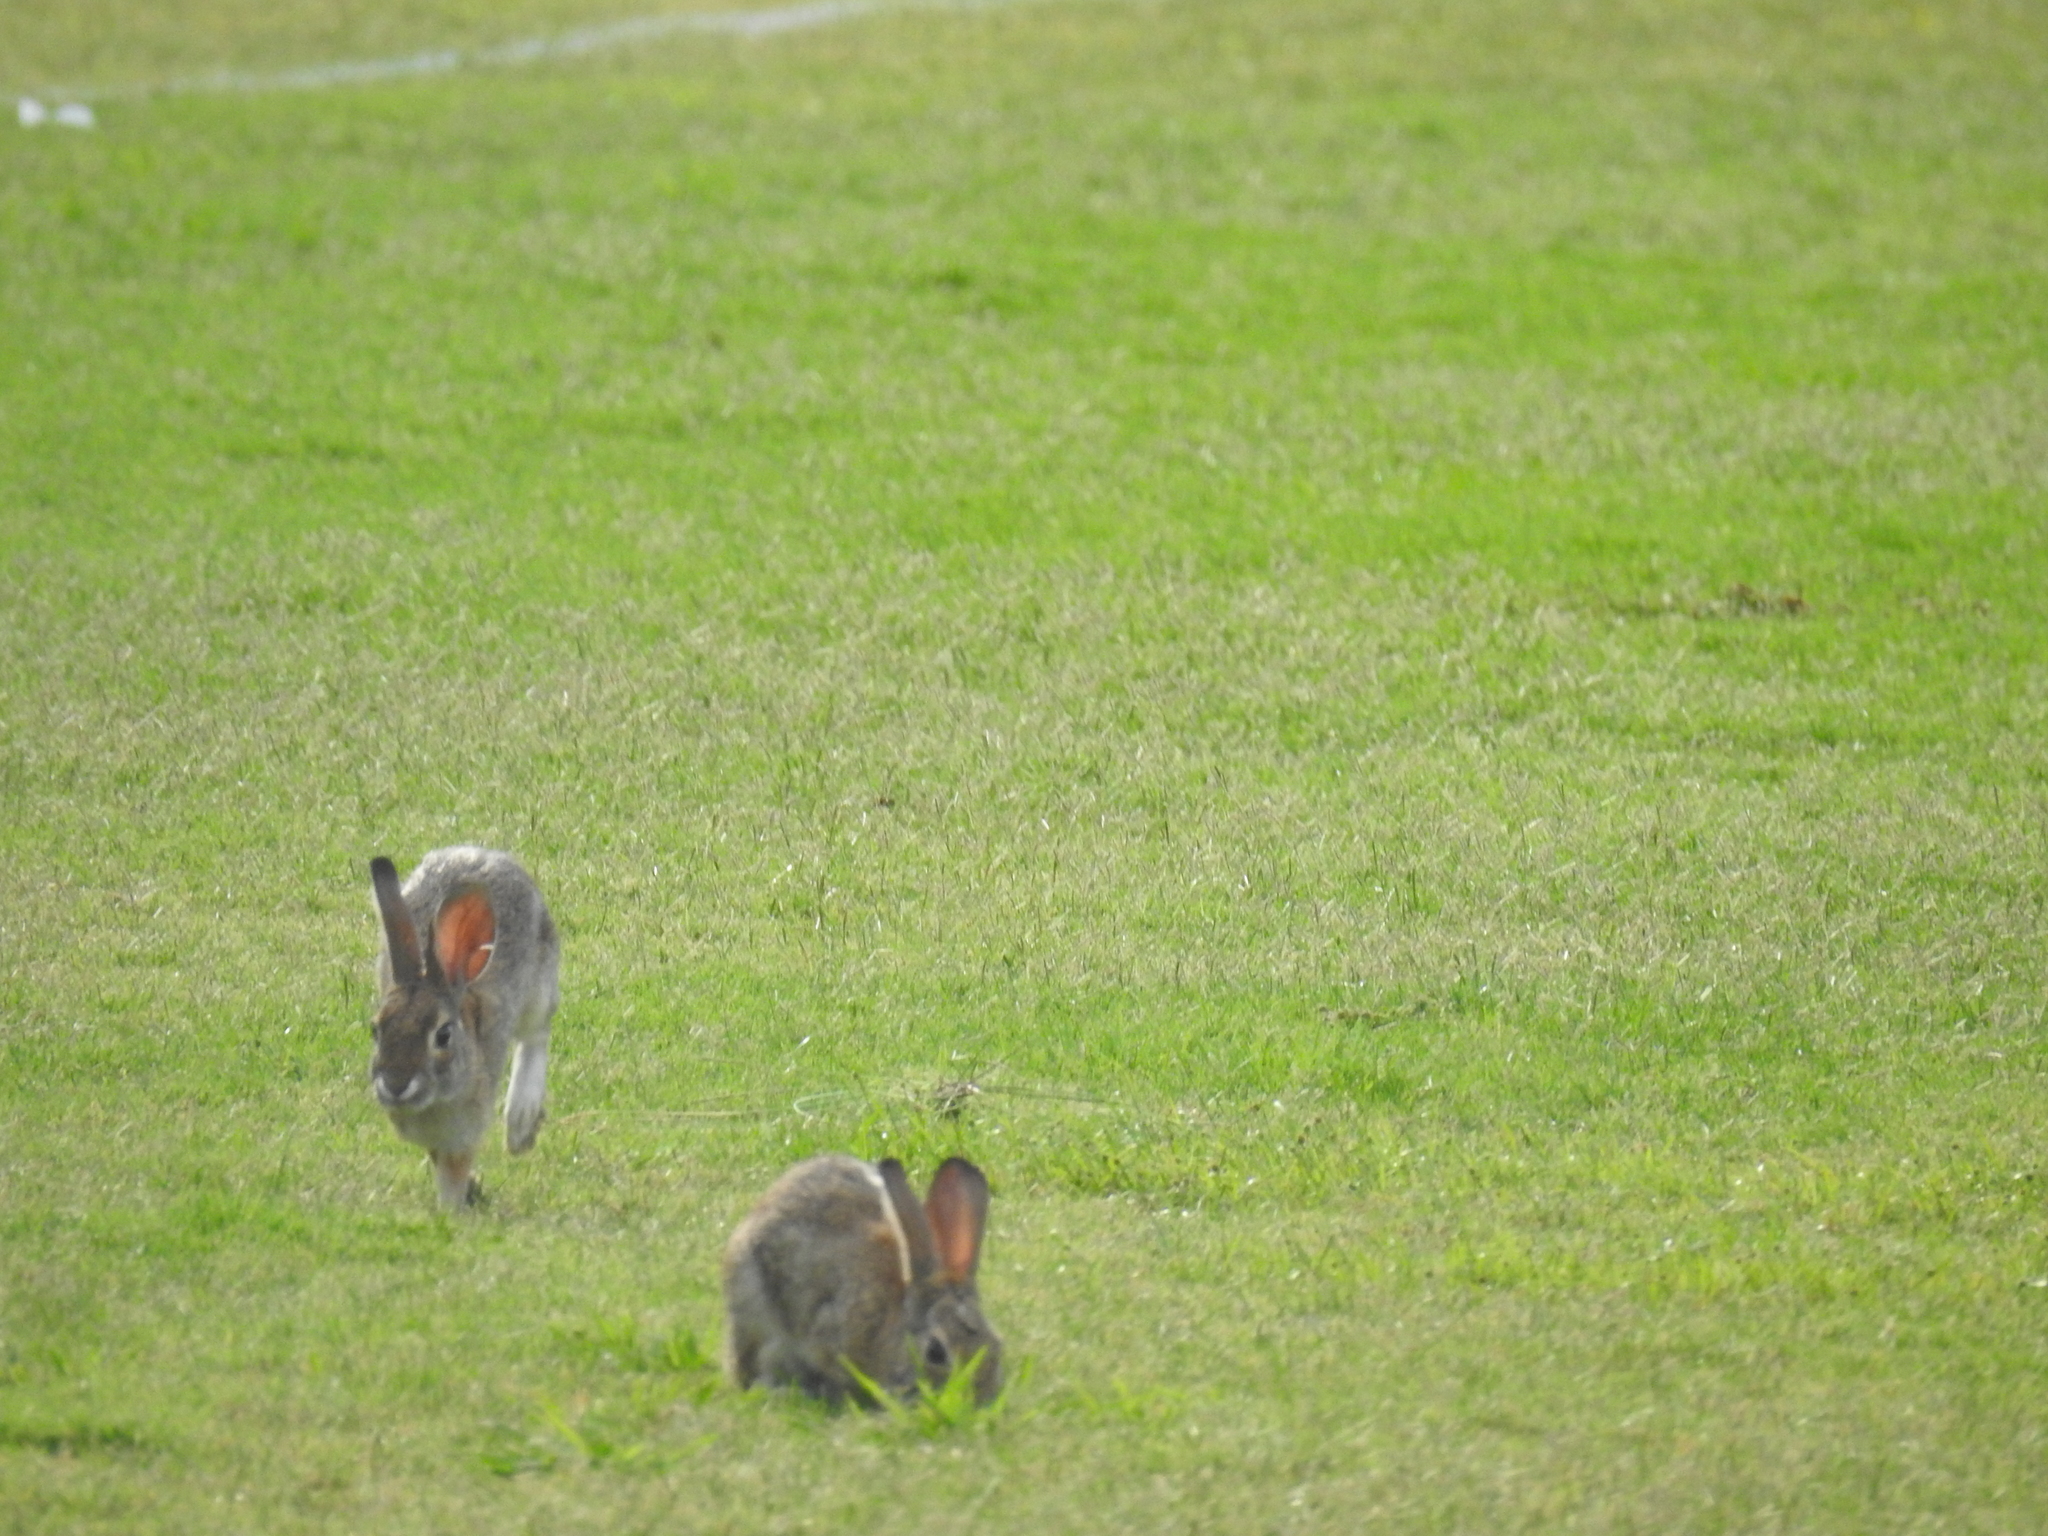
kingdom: Animalia
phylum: Chordata
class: Mammalia
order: Lagomorpha
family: Leporidae
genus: Sylvilagus
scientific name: Sylvilagus audubonii
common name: Desert cottontail
